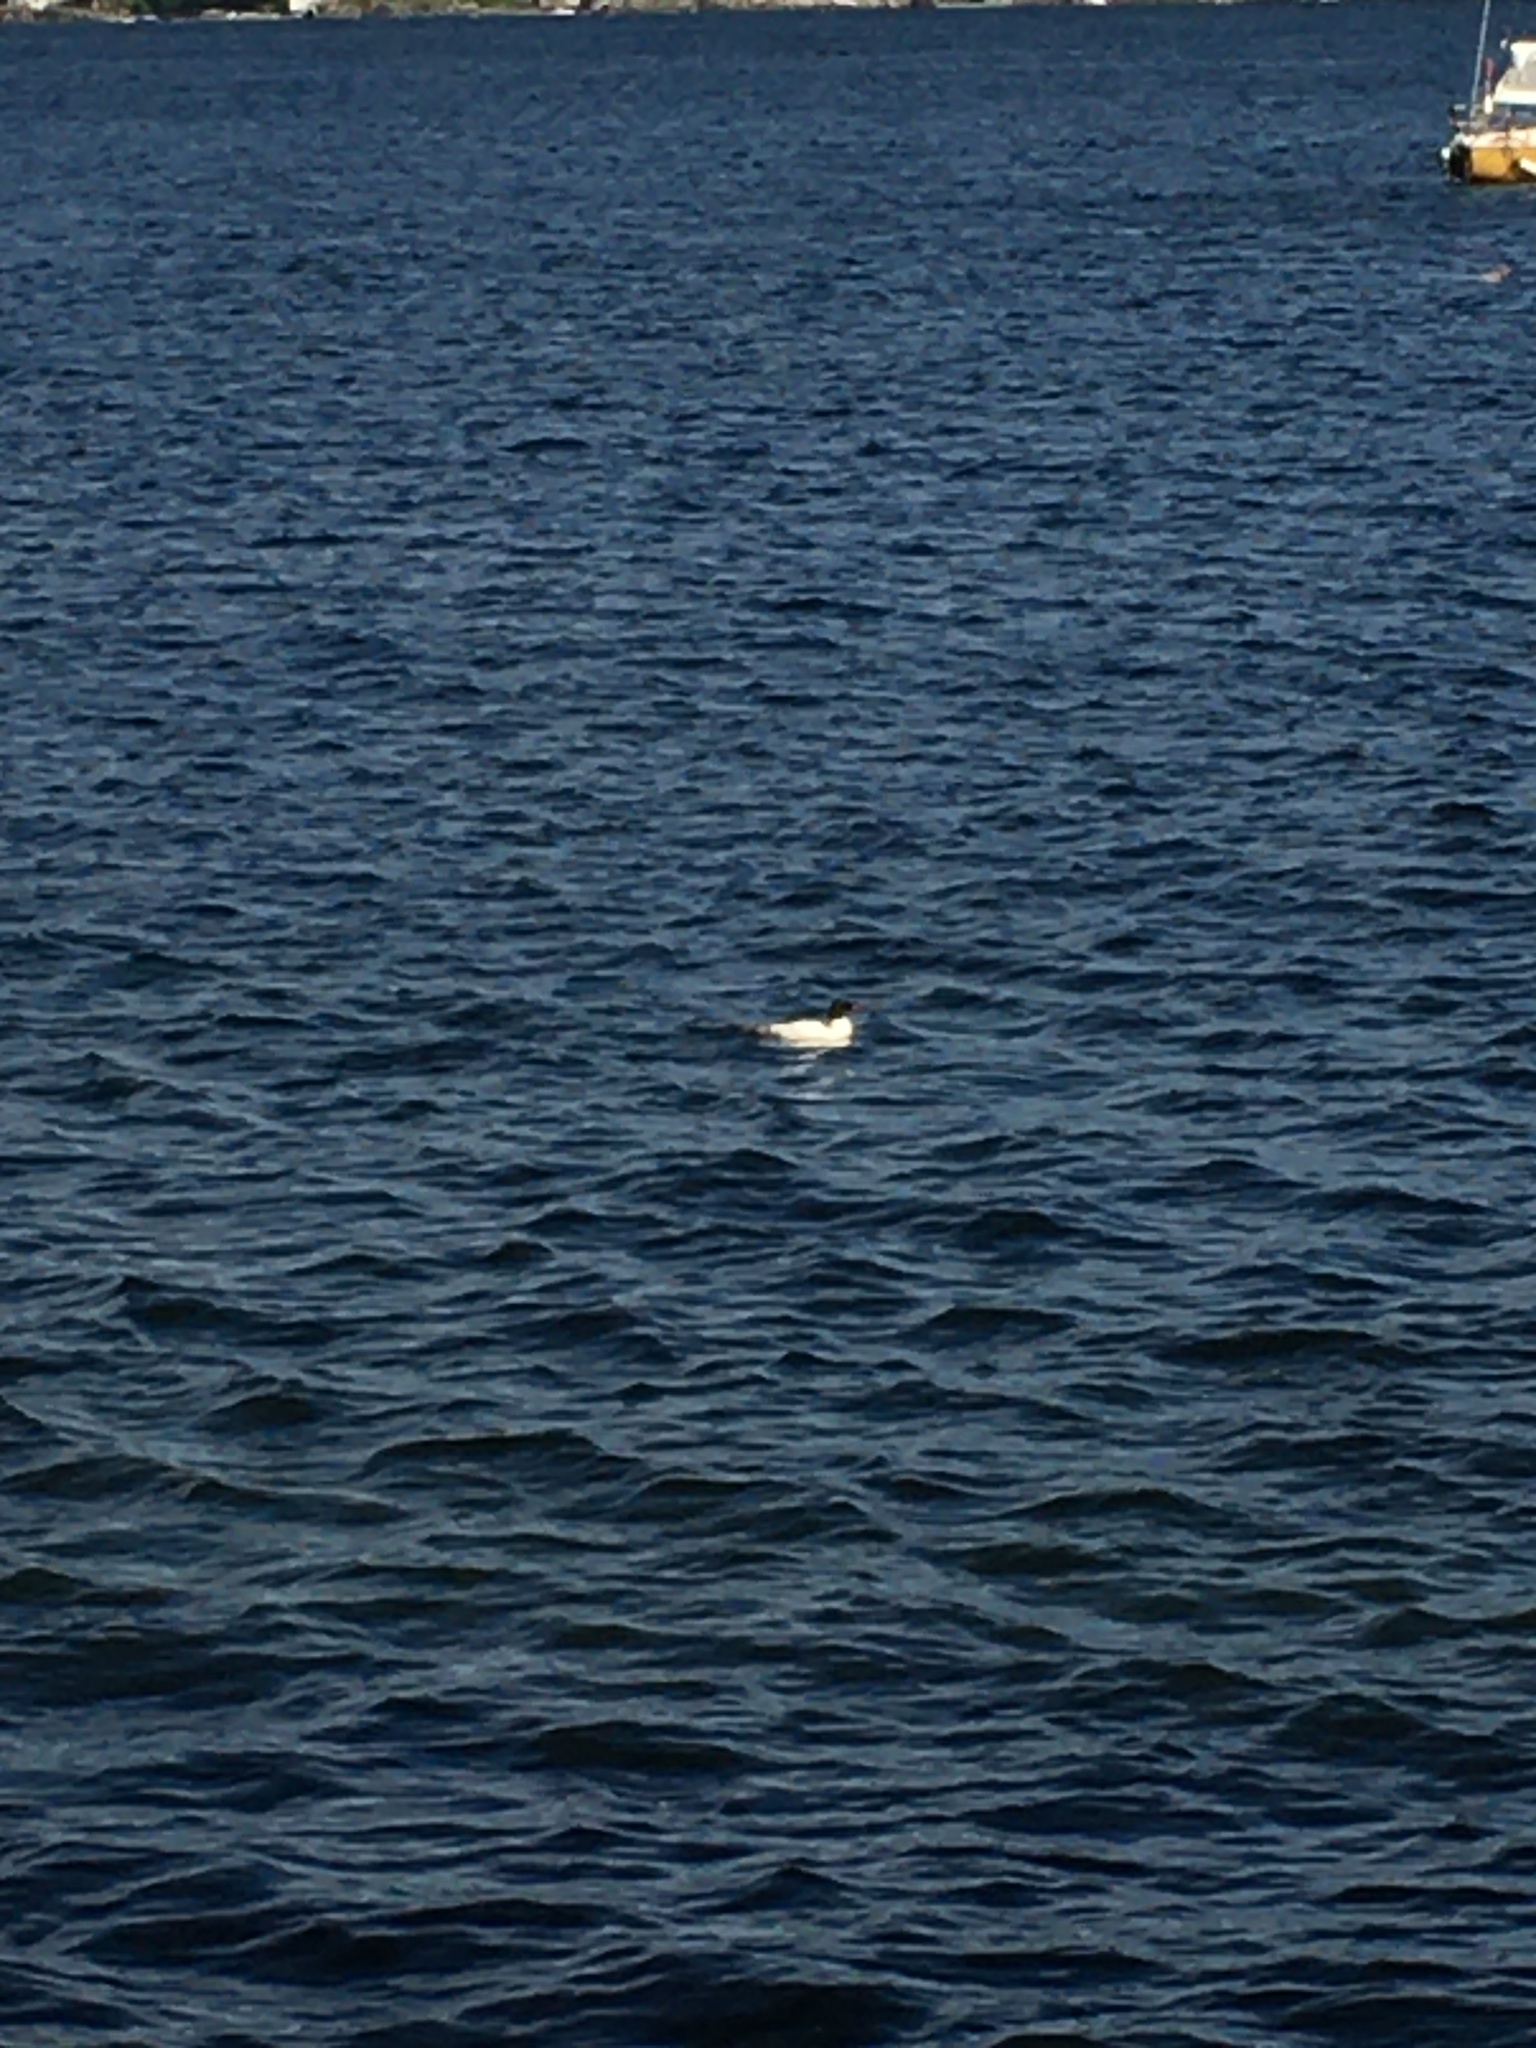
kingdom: Animalia
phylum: Chordata
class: Aves
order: Anseriformes
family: Anatidae
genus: Mergus
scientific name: Mergus merganser
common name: Common merganser
